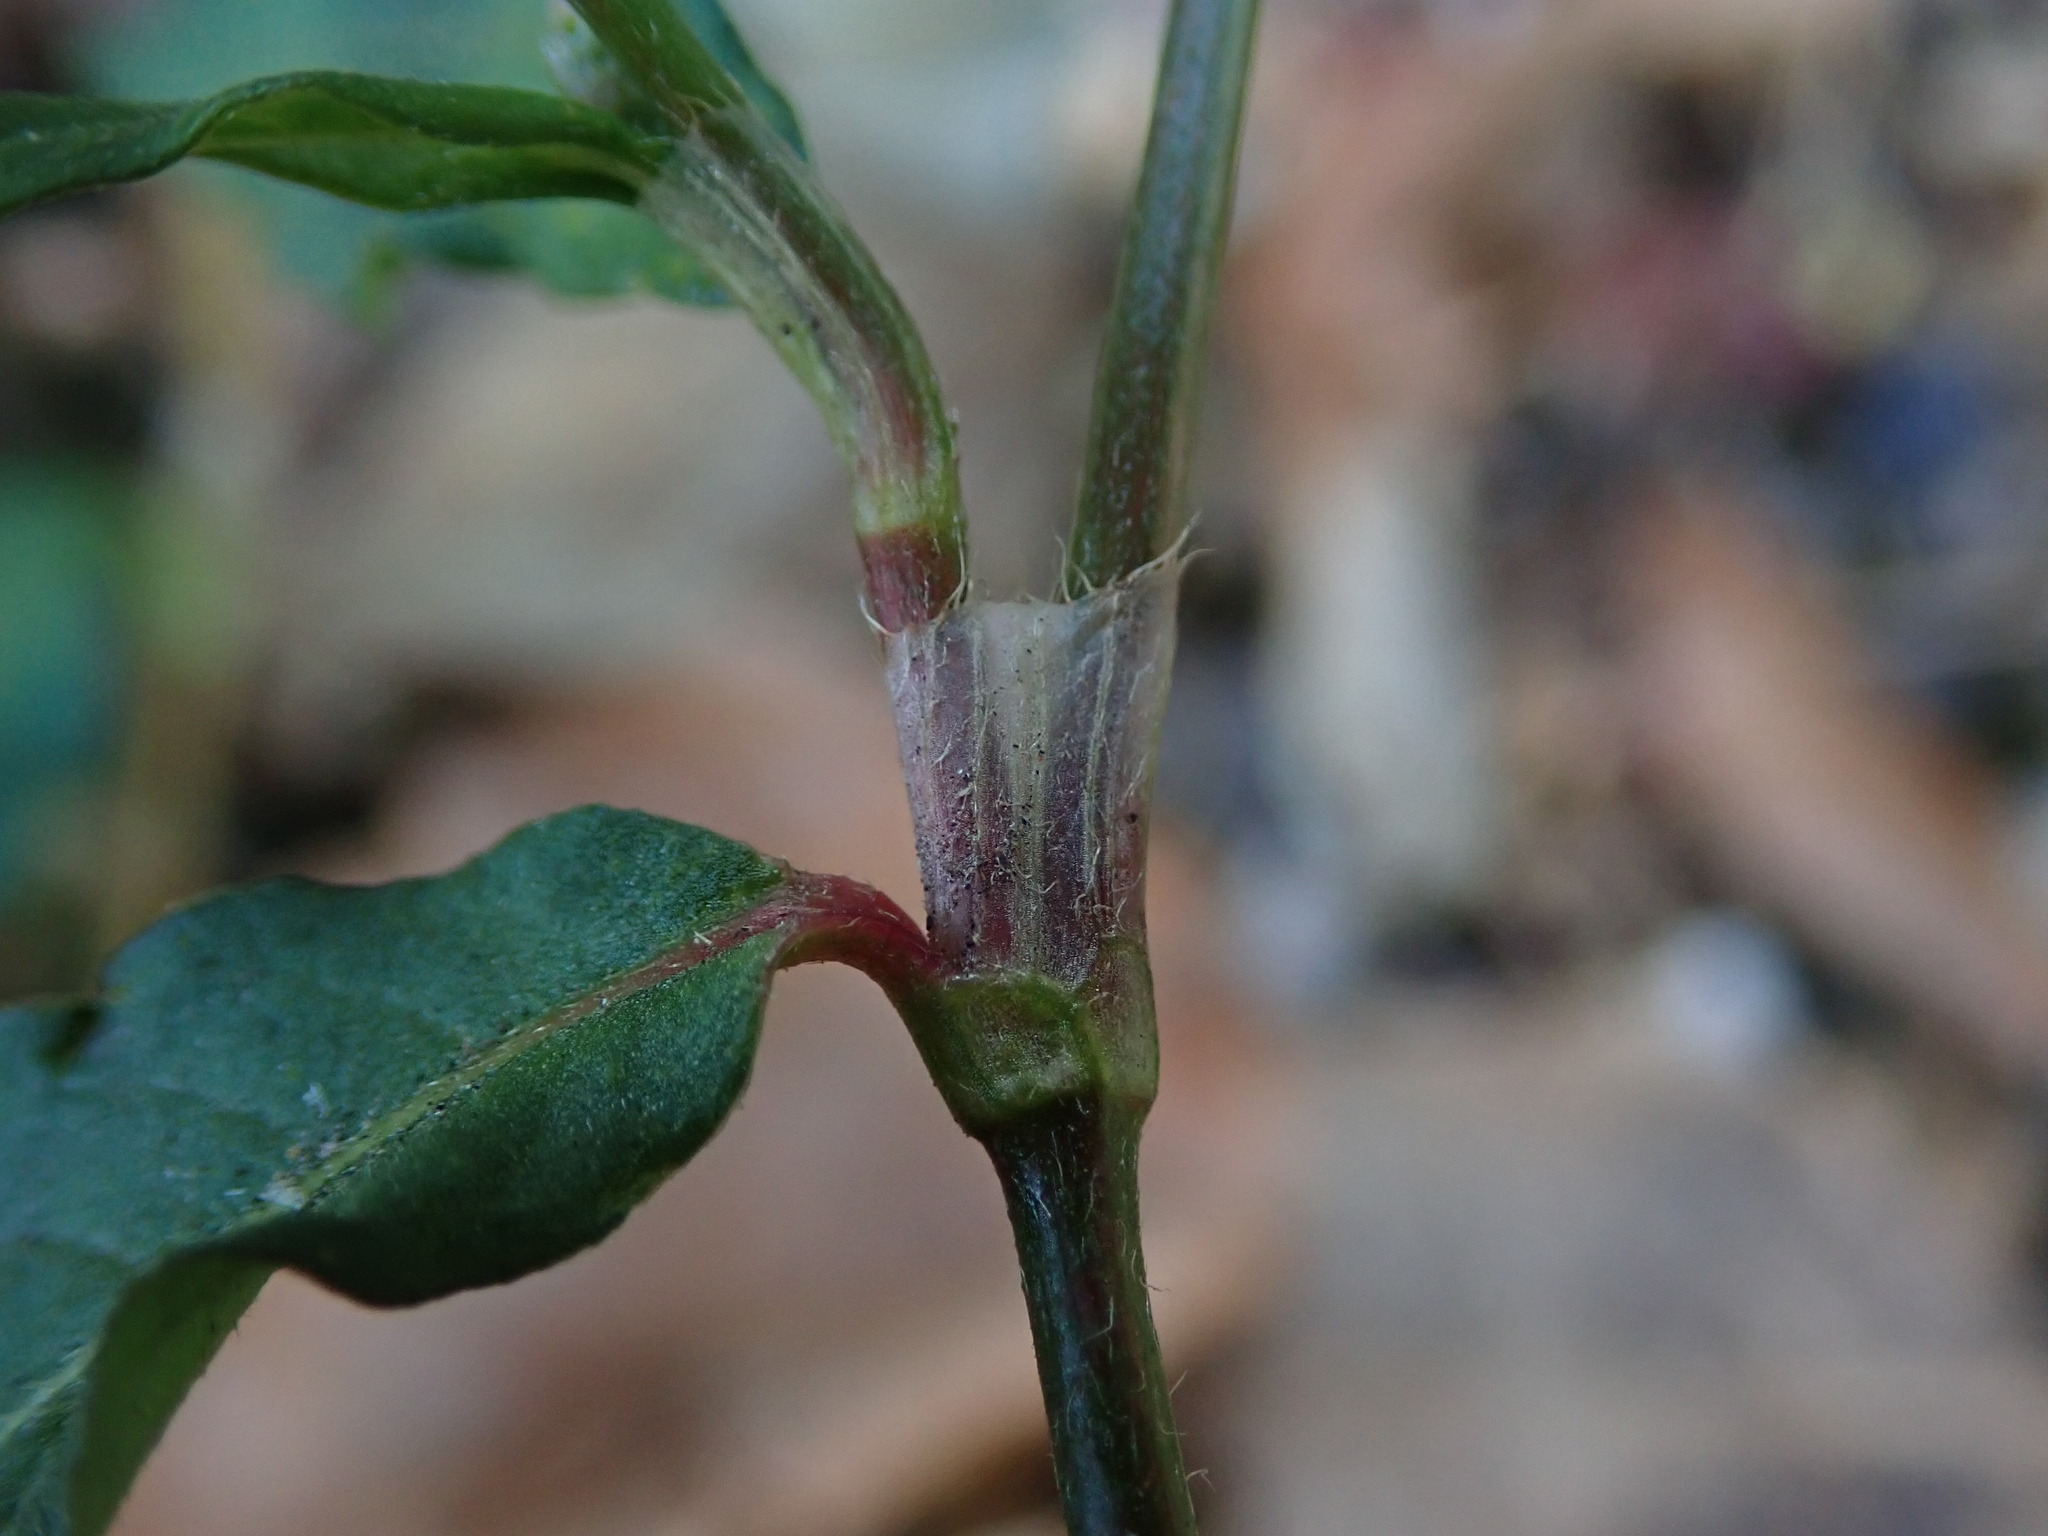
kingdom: Plantae
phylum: Tracheophyta
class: Magnoliopsida
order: Caryophyllales
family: Polygonaceae
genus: Persicaria
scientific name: Persicaria maculosa
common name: Redshank
